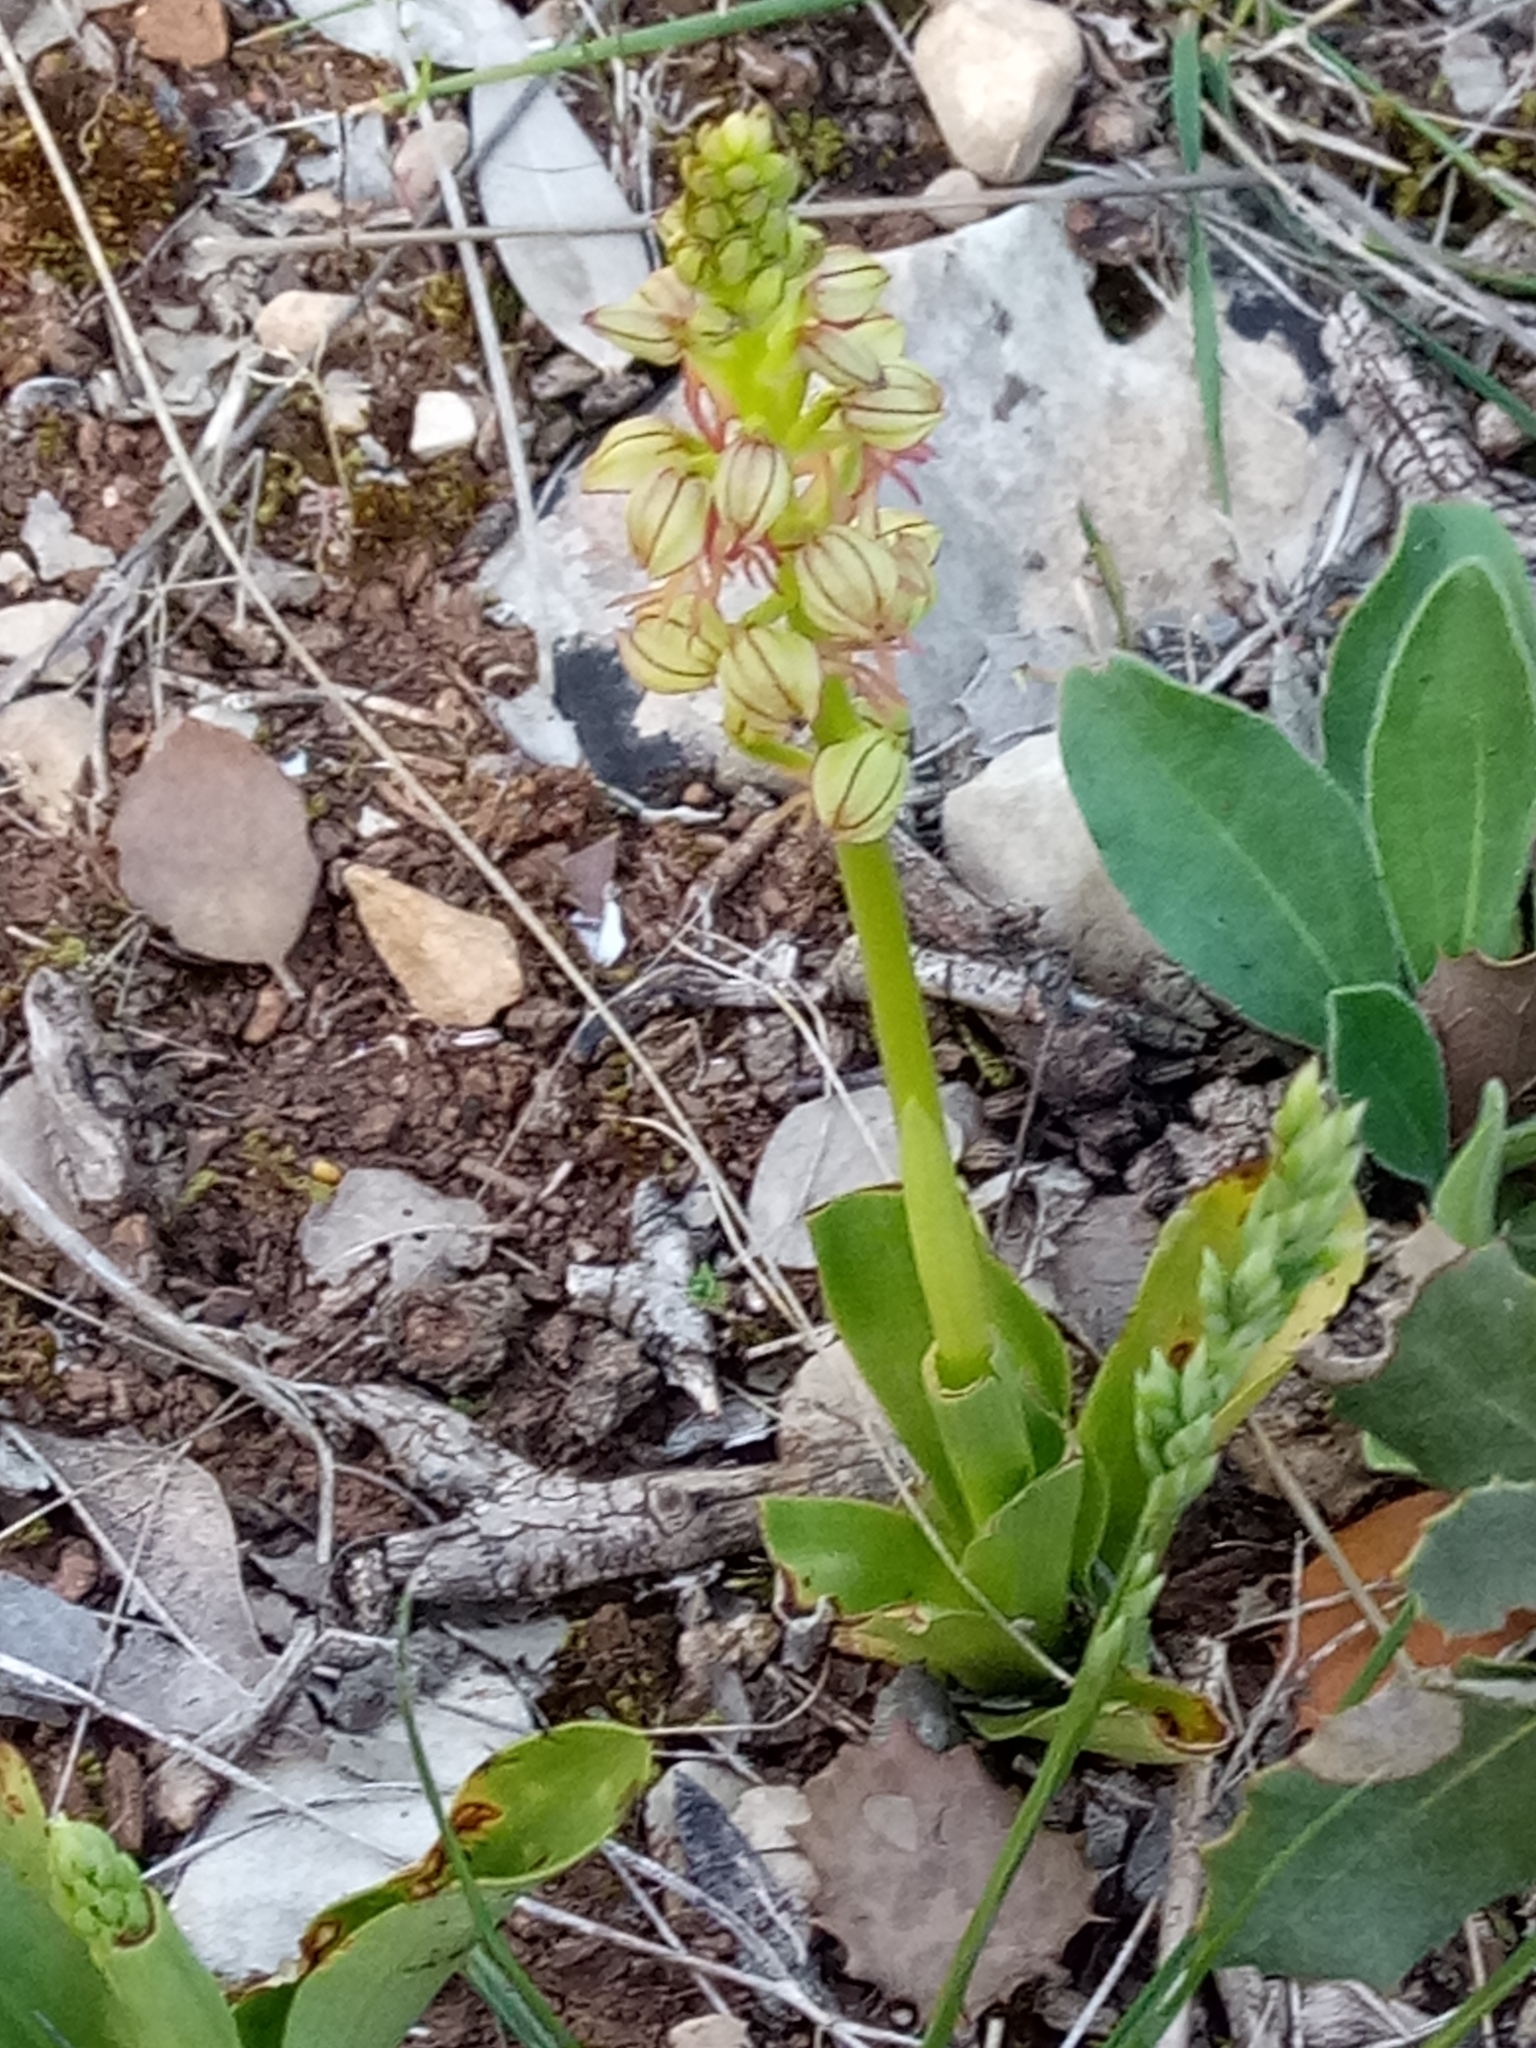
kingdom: Plantae
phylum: Tracheophyta
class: Liliopsida
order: Asparagales
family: Orchidaceae
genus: Orchis
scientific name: Orchis anthropophora
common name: Man orchid
